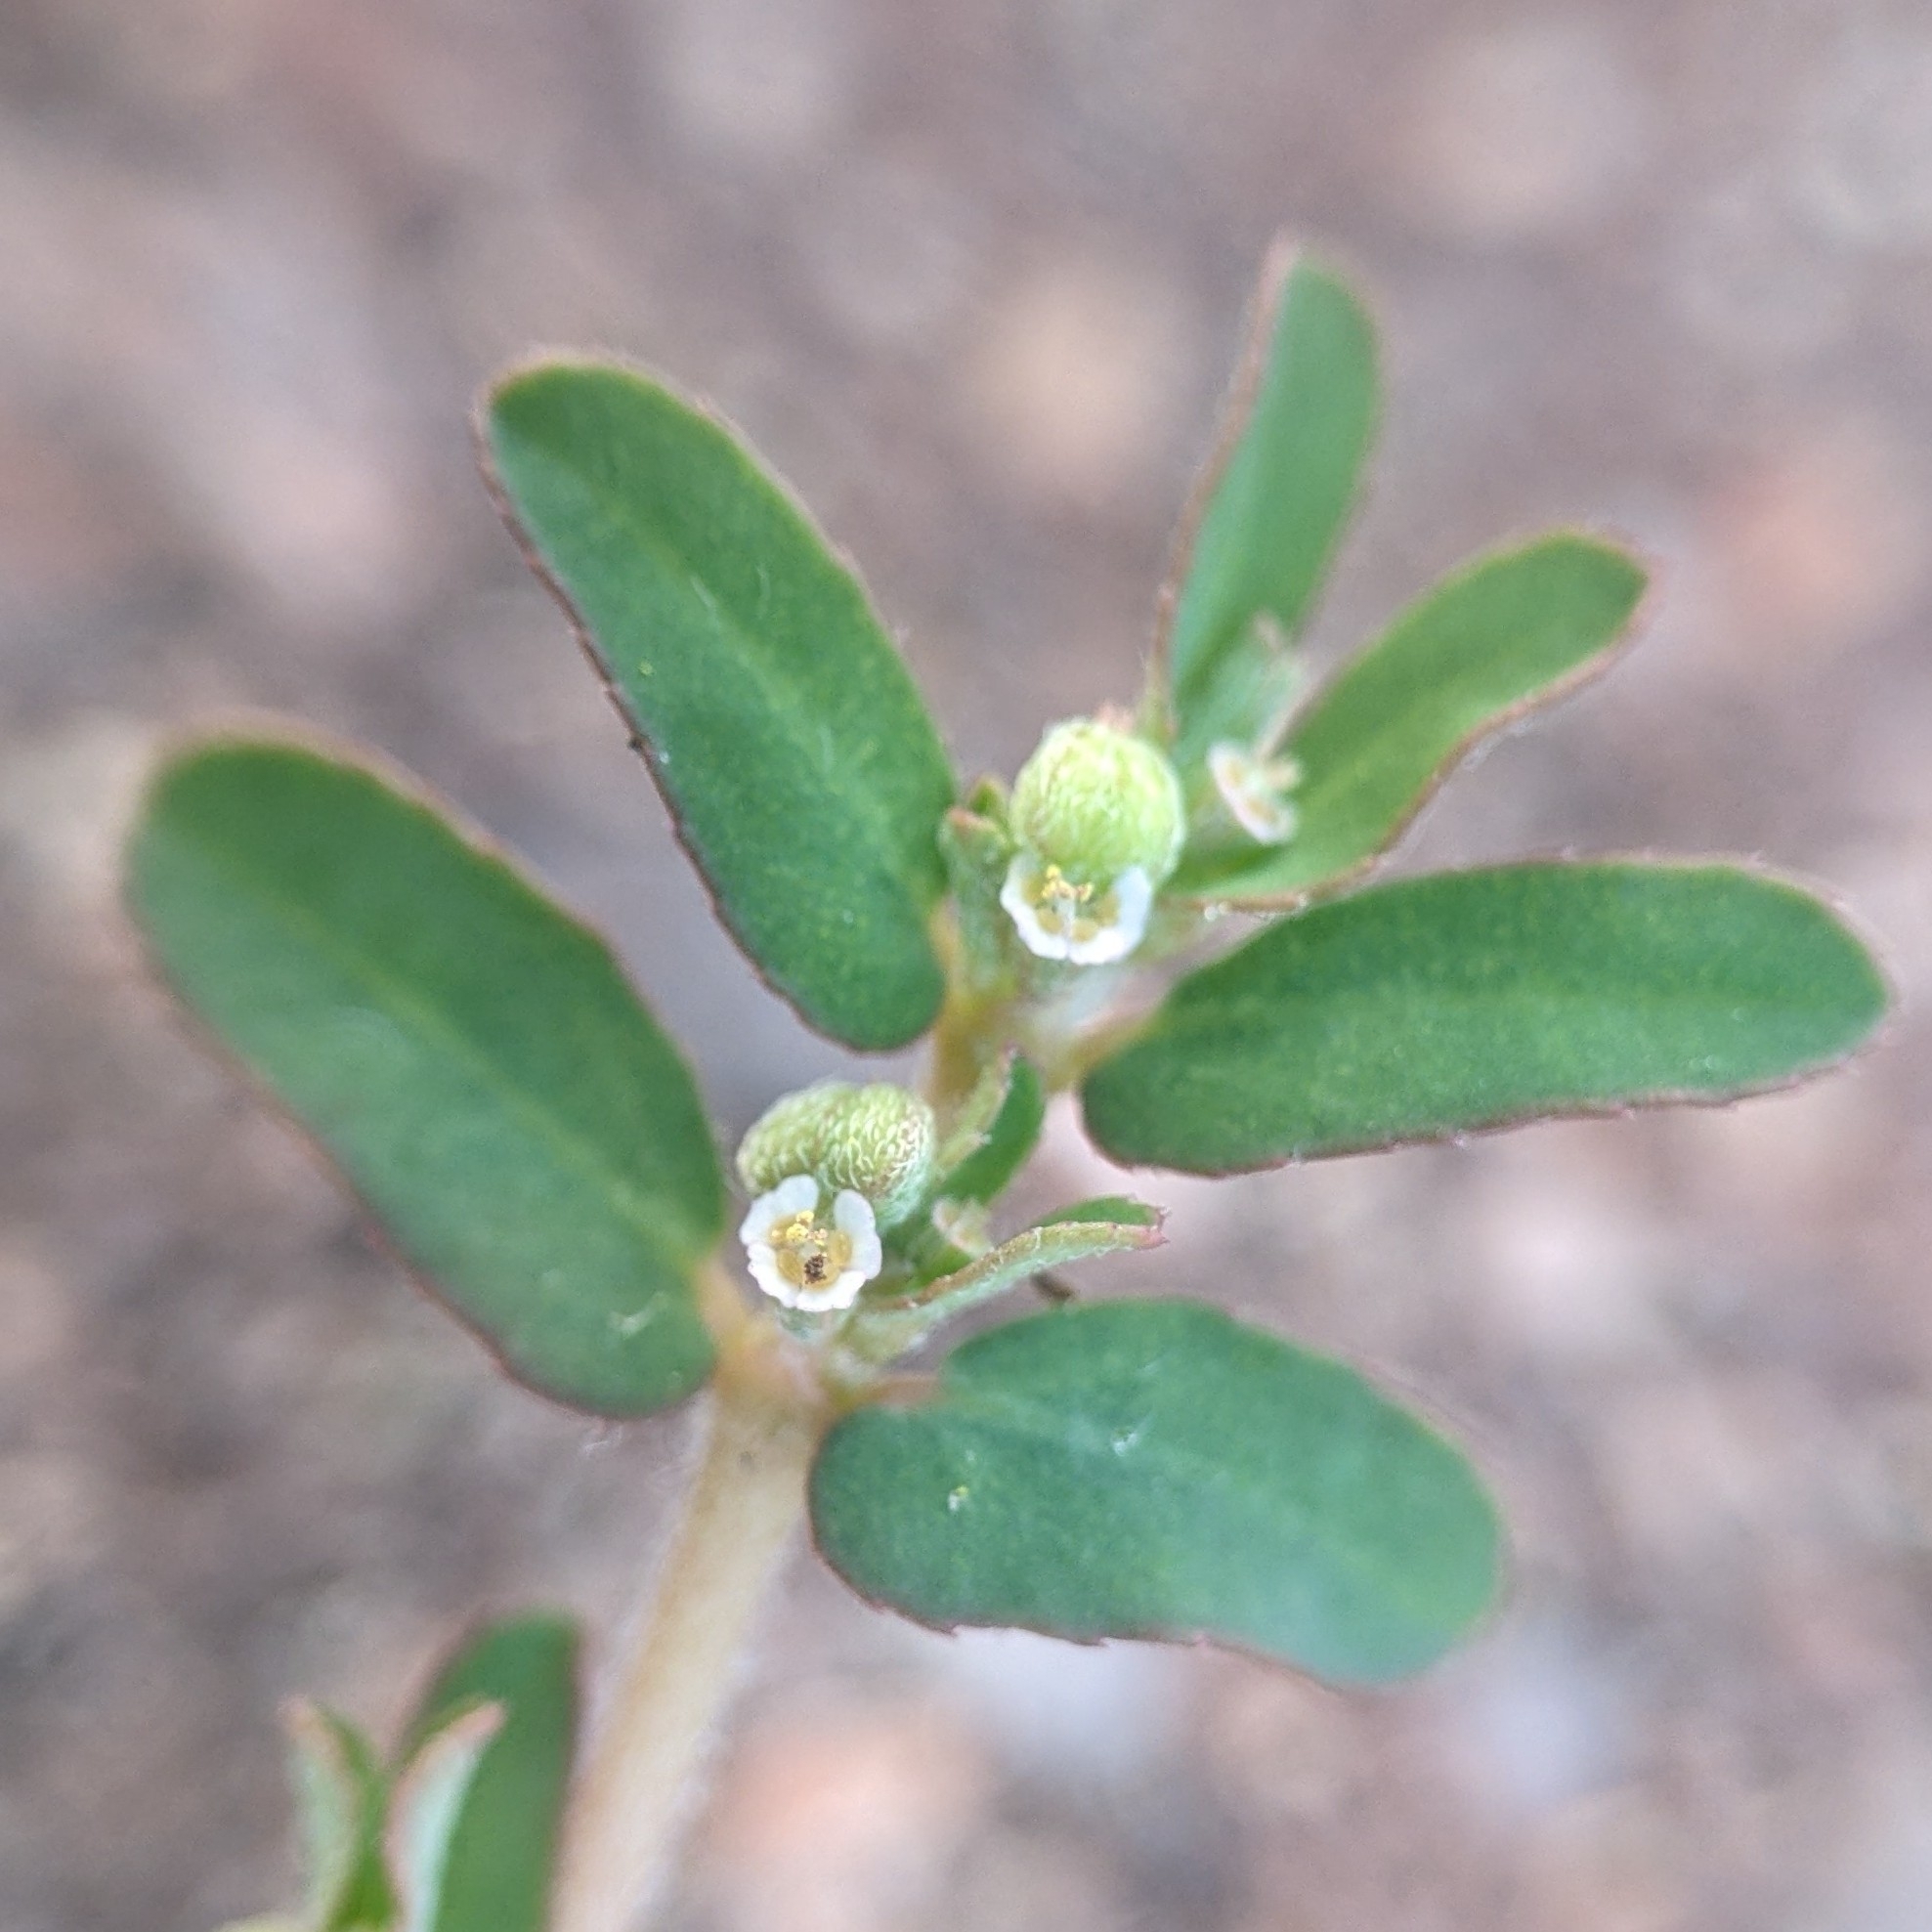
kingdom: Plantae
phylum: Tracheophyta
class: Magnoliopsida
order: Malpighiales
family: Euphorbiaceae
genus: Euphorbia
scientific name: Euphorbia maculata
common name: Spotted spurge
